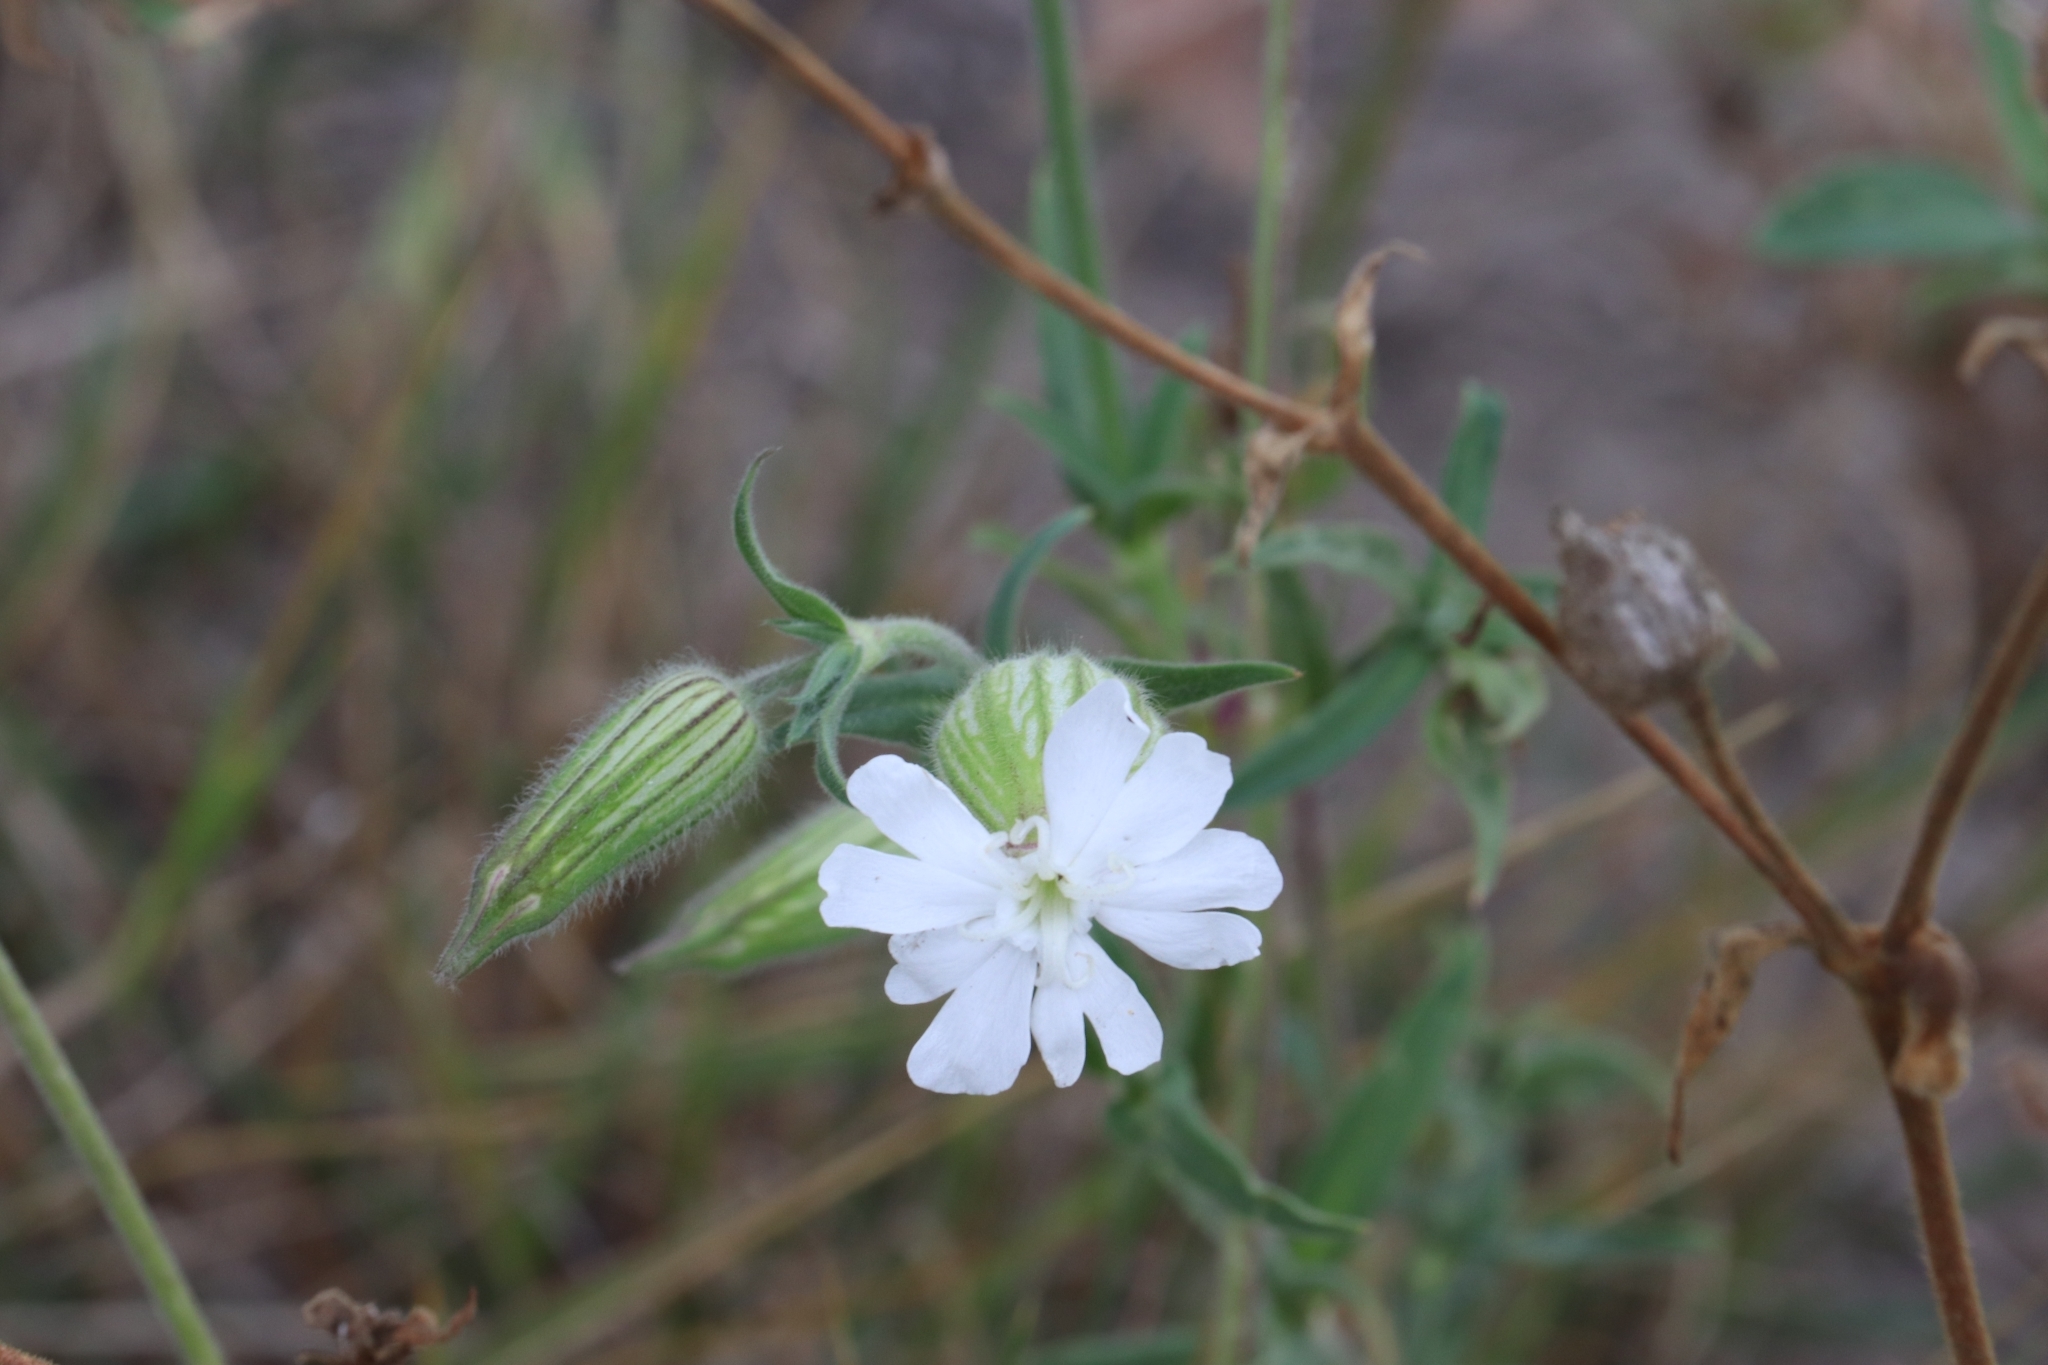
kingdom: Plantae
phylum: Tracheophyta
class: Magnoliopsida
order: Caryophyllales
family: Caryophyllaceae
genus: Silene
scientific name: Silene latifolia
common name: White campion
